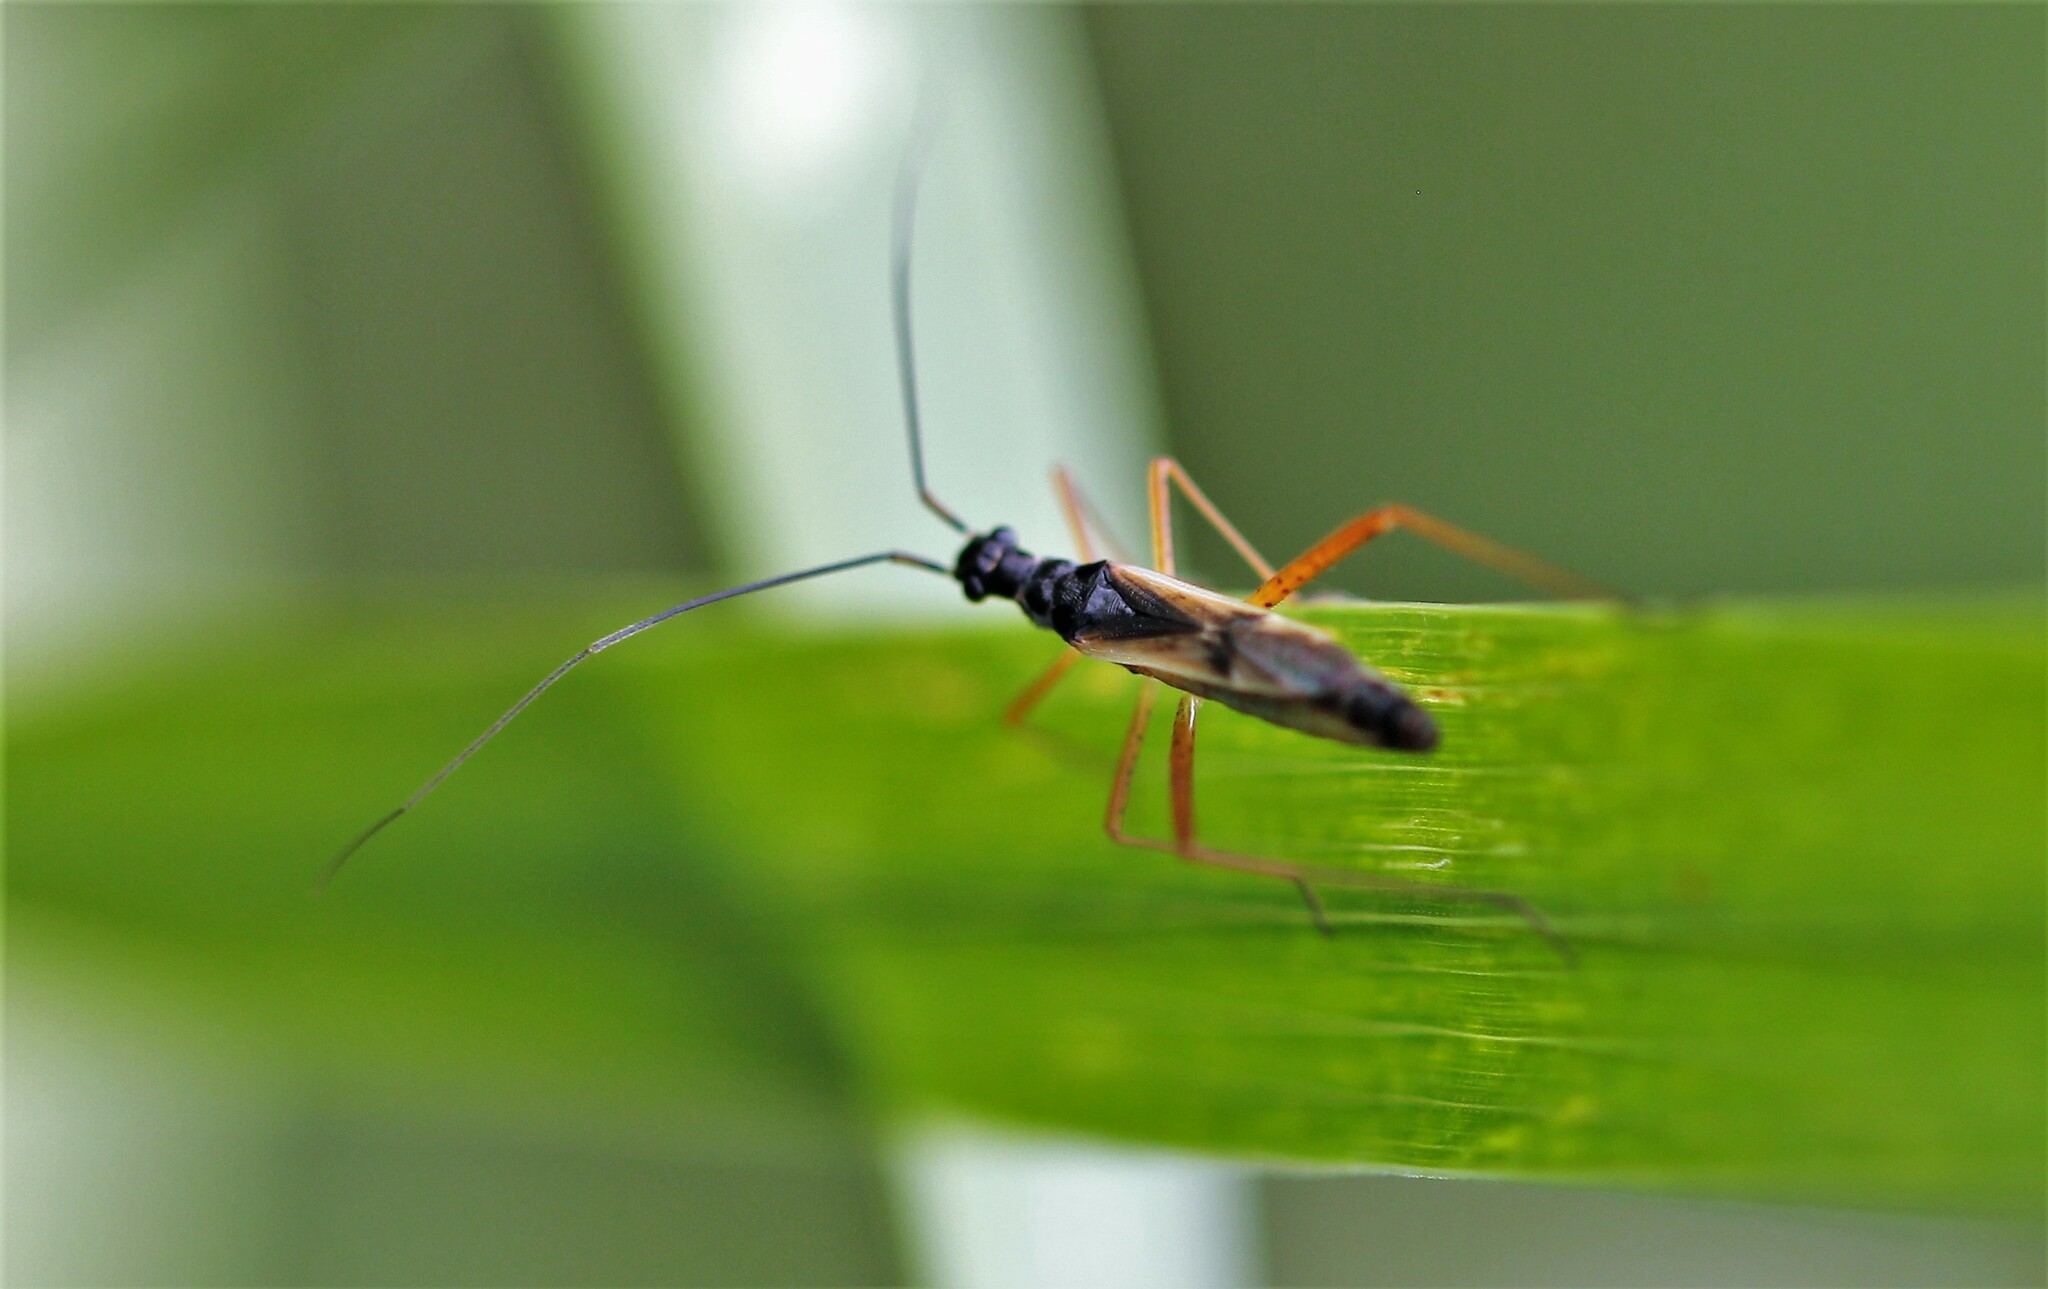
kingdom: Animalia
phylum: Arthropoda
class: Insecta
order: Hemiptera
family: Miridae
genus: Collaria
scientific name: Collaria meilleurii
